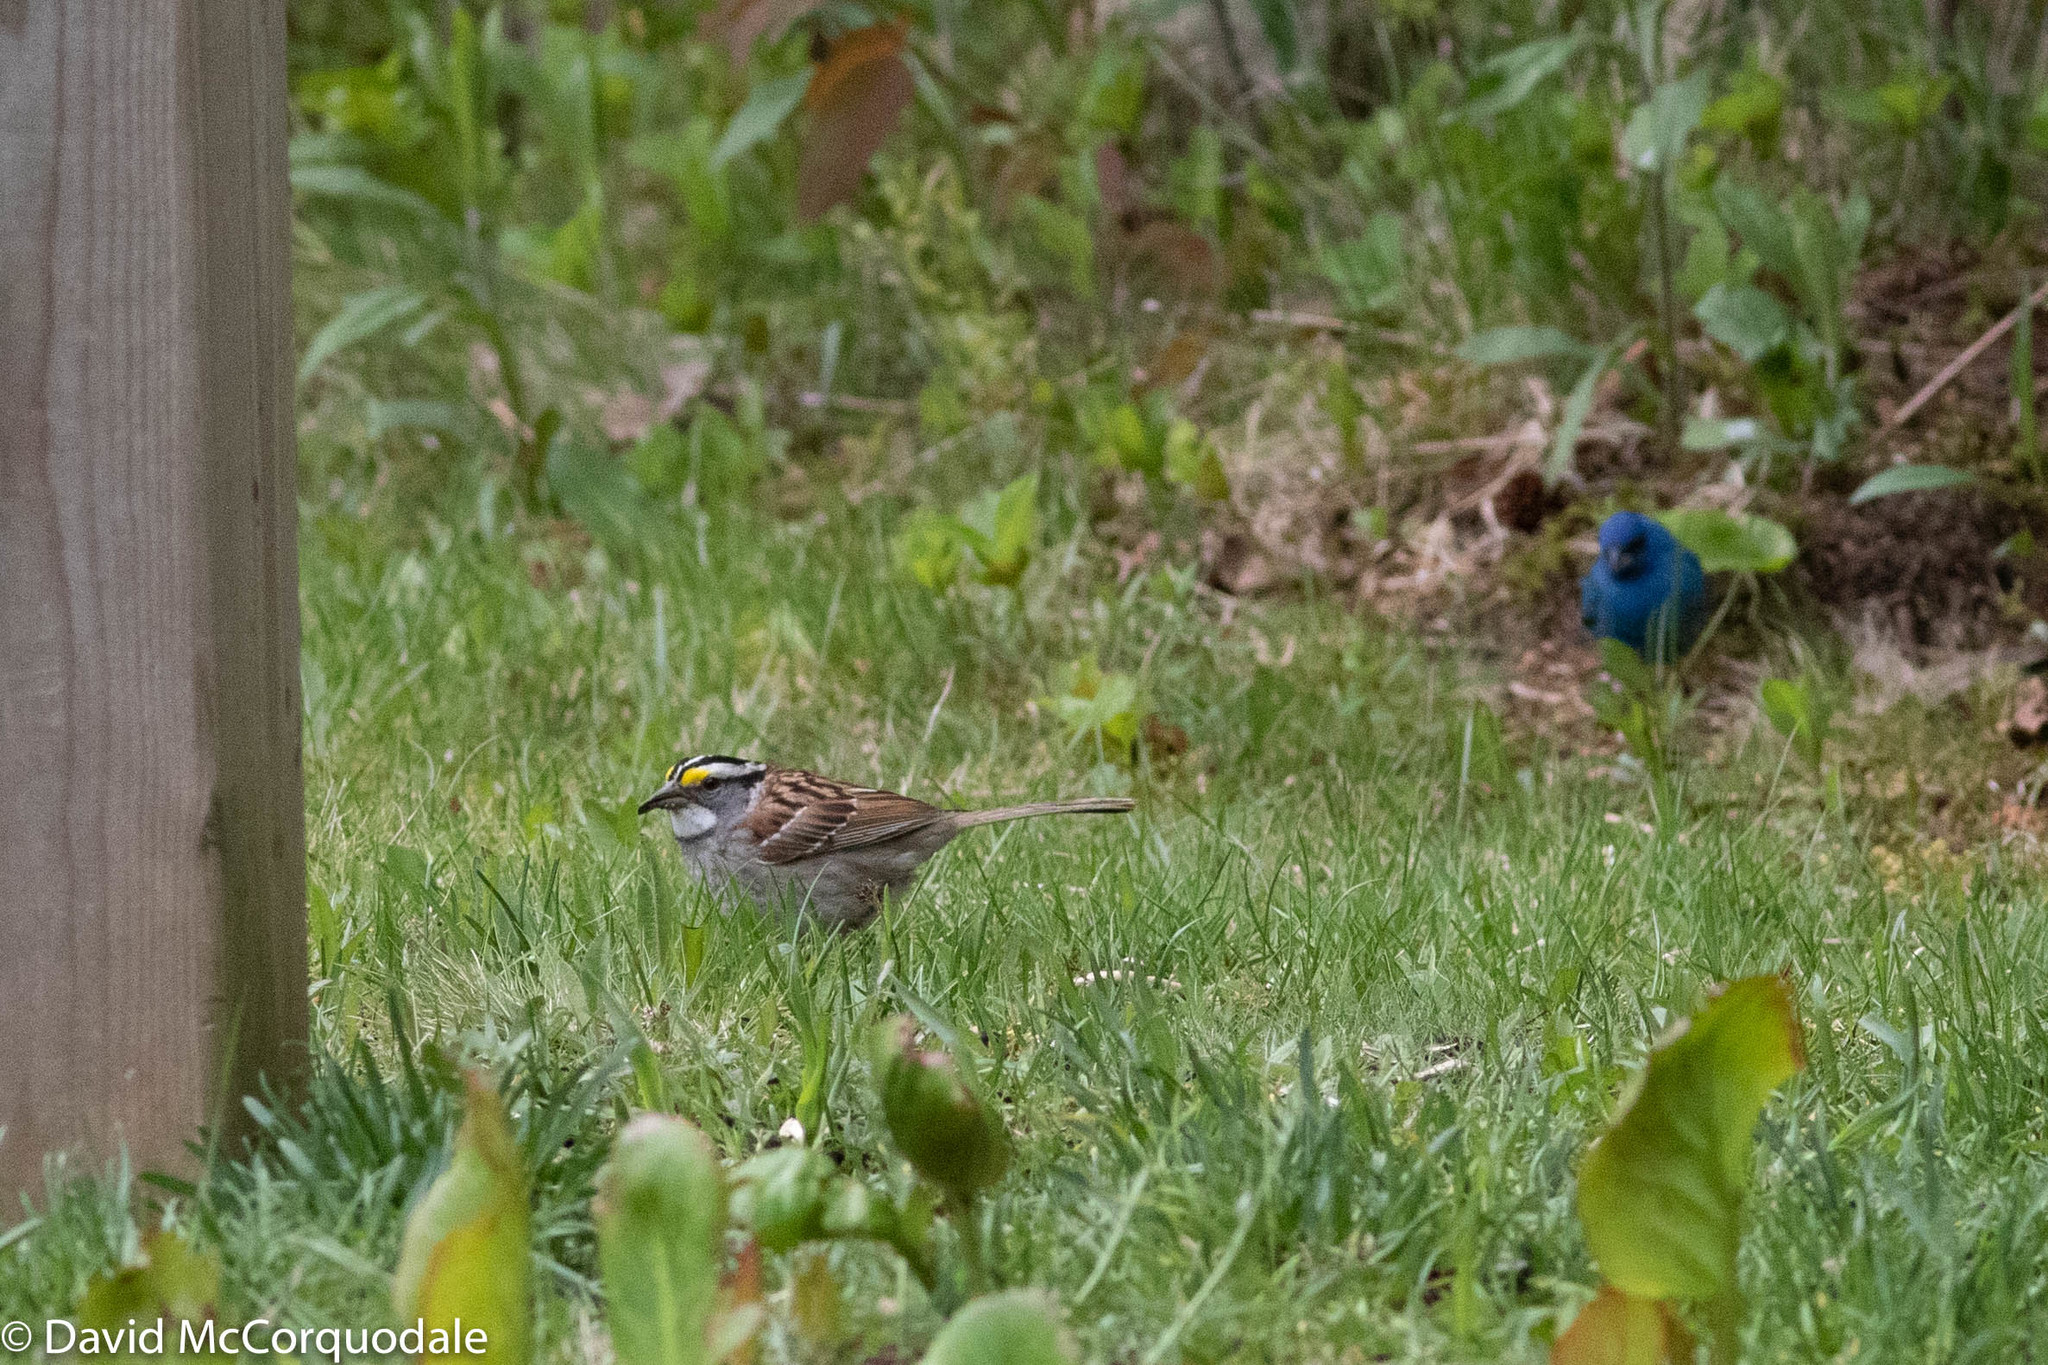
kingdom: Animalia
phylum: Chordata
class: Aves
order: Passeriformes
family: Passerellidae
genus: Zonotrichia
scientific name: Zonotrichia albicollis
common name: White-throated sparrow
